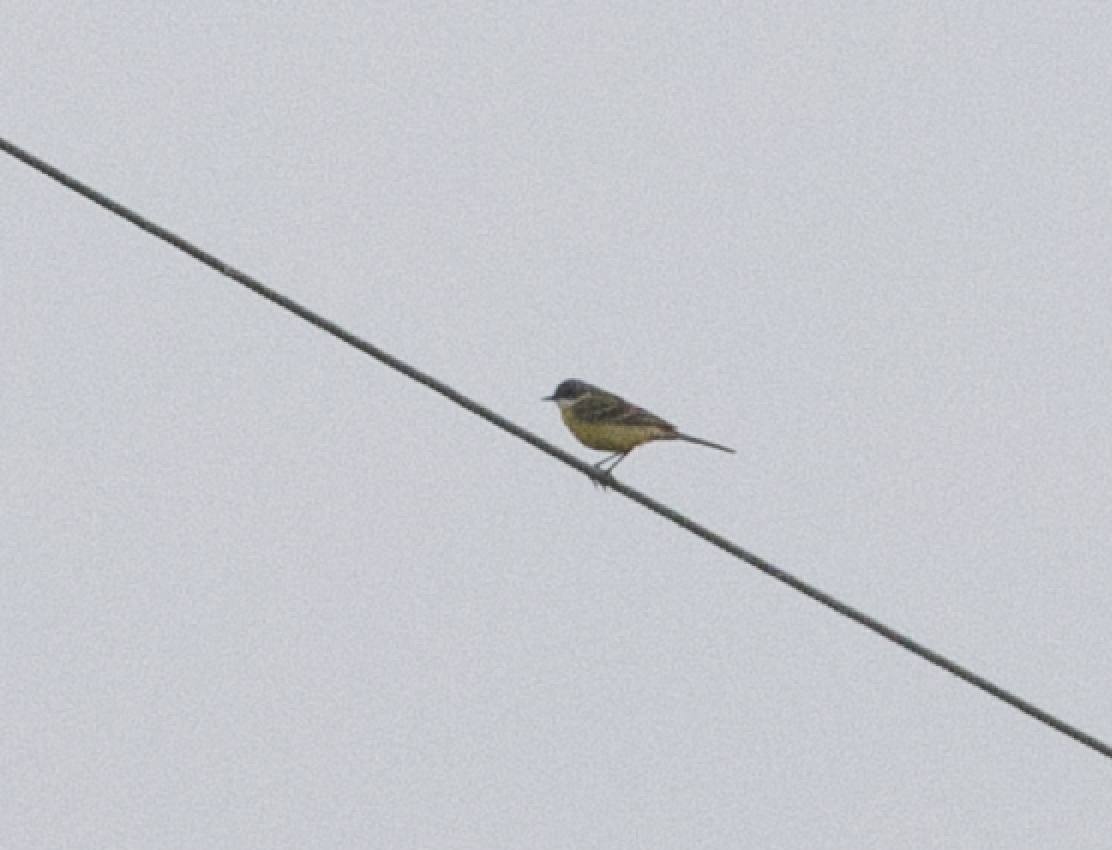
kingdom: Animalia
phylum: Chordata
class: Aves
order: Passeriformes
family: Motacillidae
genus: Motacilla
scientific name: Motacilla flava
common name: Western yellow wagtail
